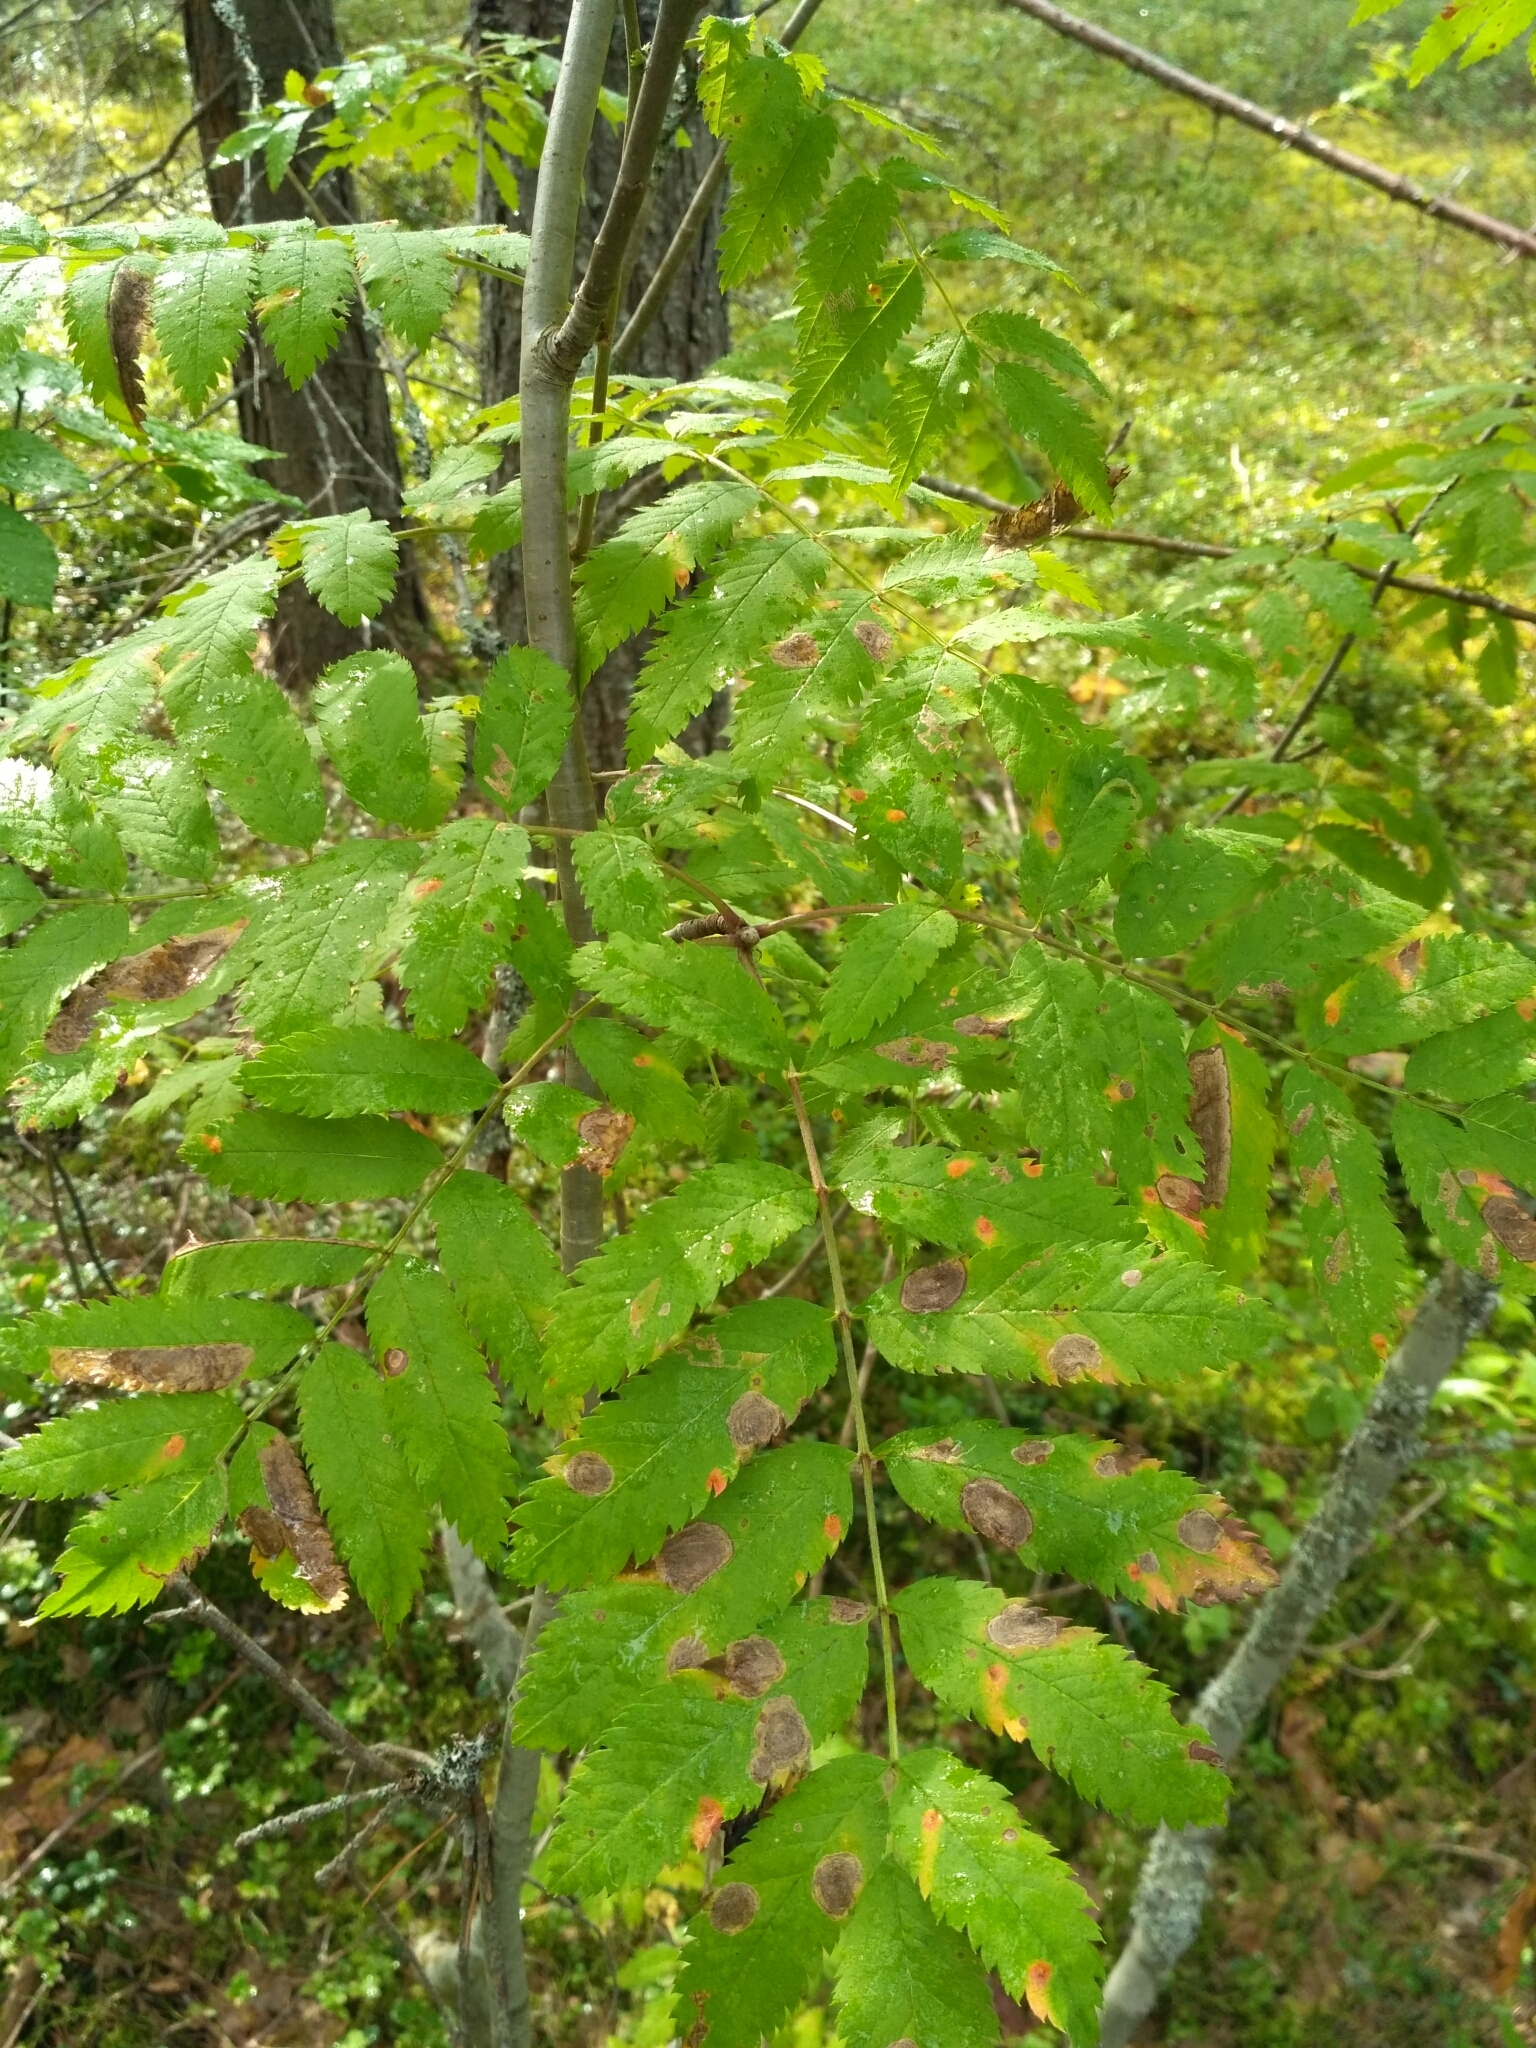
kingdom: Plantae
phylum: Tracheophyta
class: Magnoliopsida
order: Rosales
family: Rosaceae
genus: Sorbus
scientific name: Sorbus aucuparia
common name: Rowan
